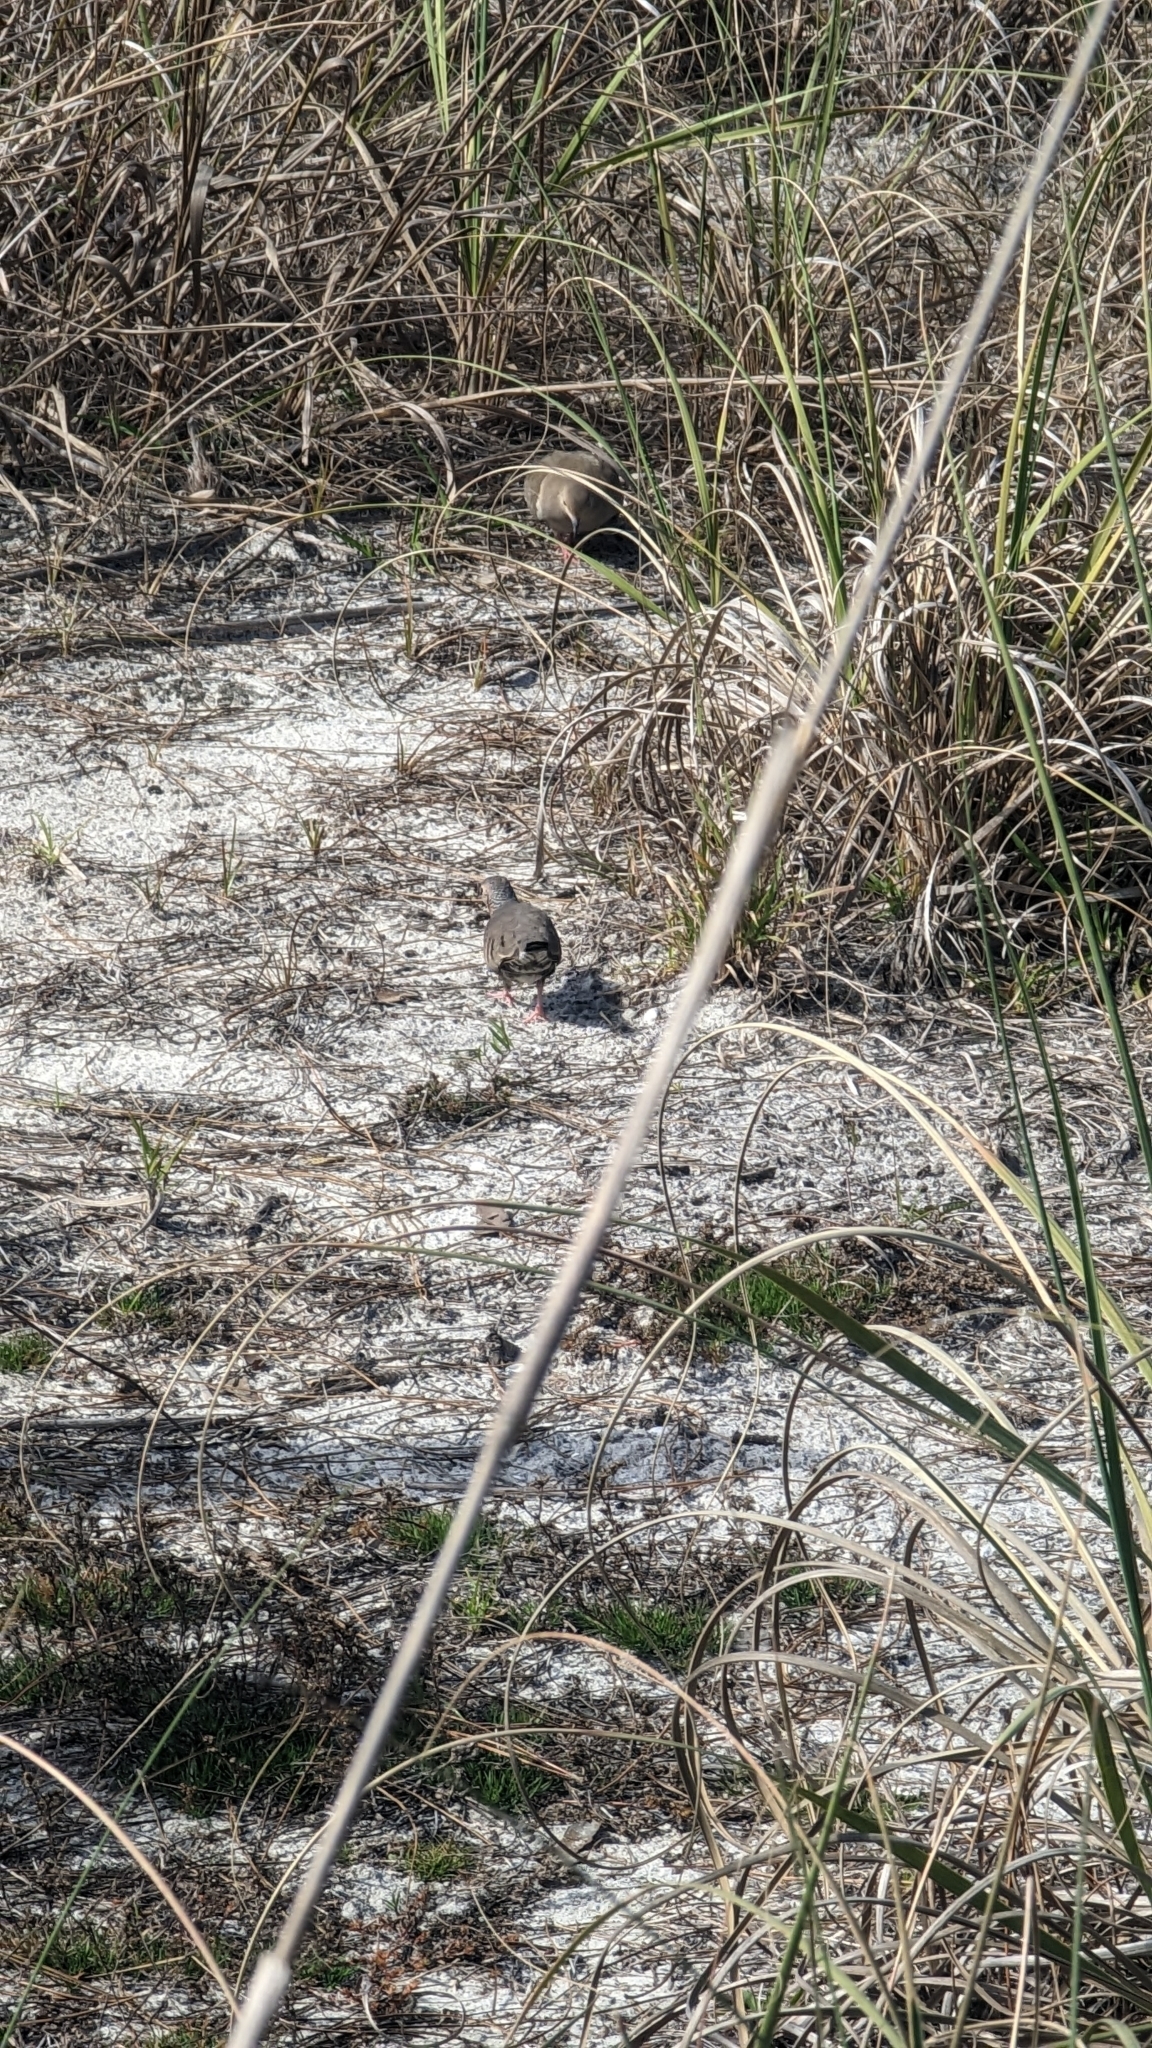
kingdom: Animalia
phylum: Chordata
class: Aves
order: Columbiformes
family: Columbidae
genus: Columbina
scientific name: Columbina passerina
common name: Common ground-dove
